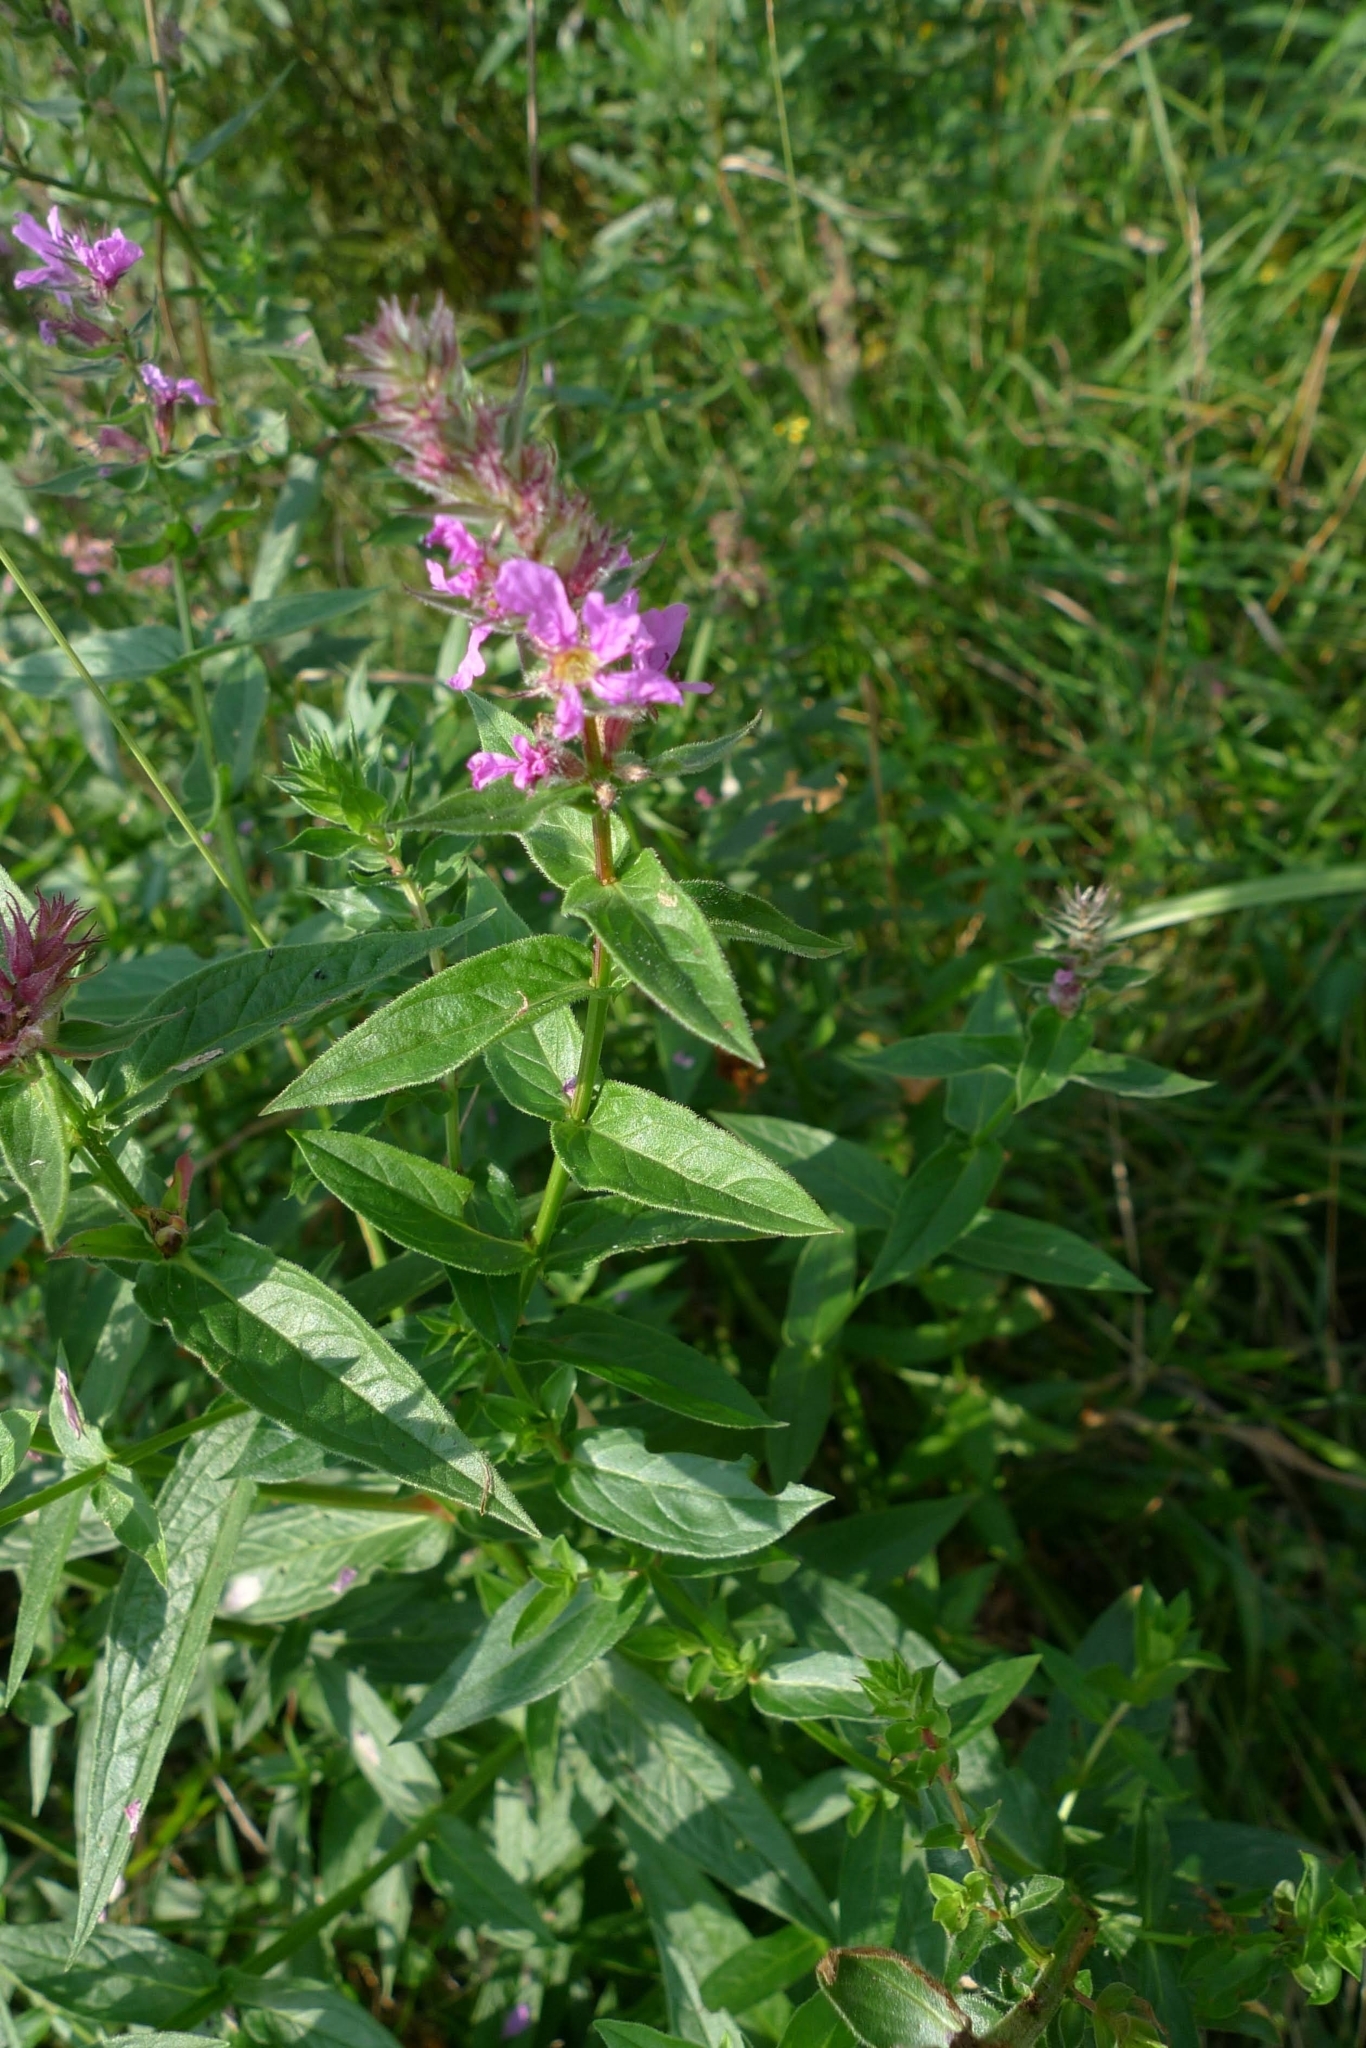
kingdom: Plantae
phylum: Tracheophyta
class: Magnoliopsida
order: Myrtales
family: Lythraceae
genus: Lythrum
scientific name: Lythrum salicaria
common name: Purple loosestrife
